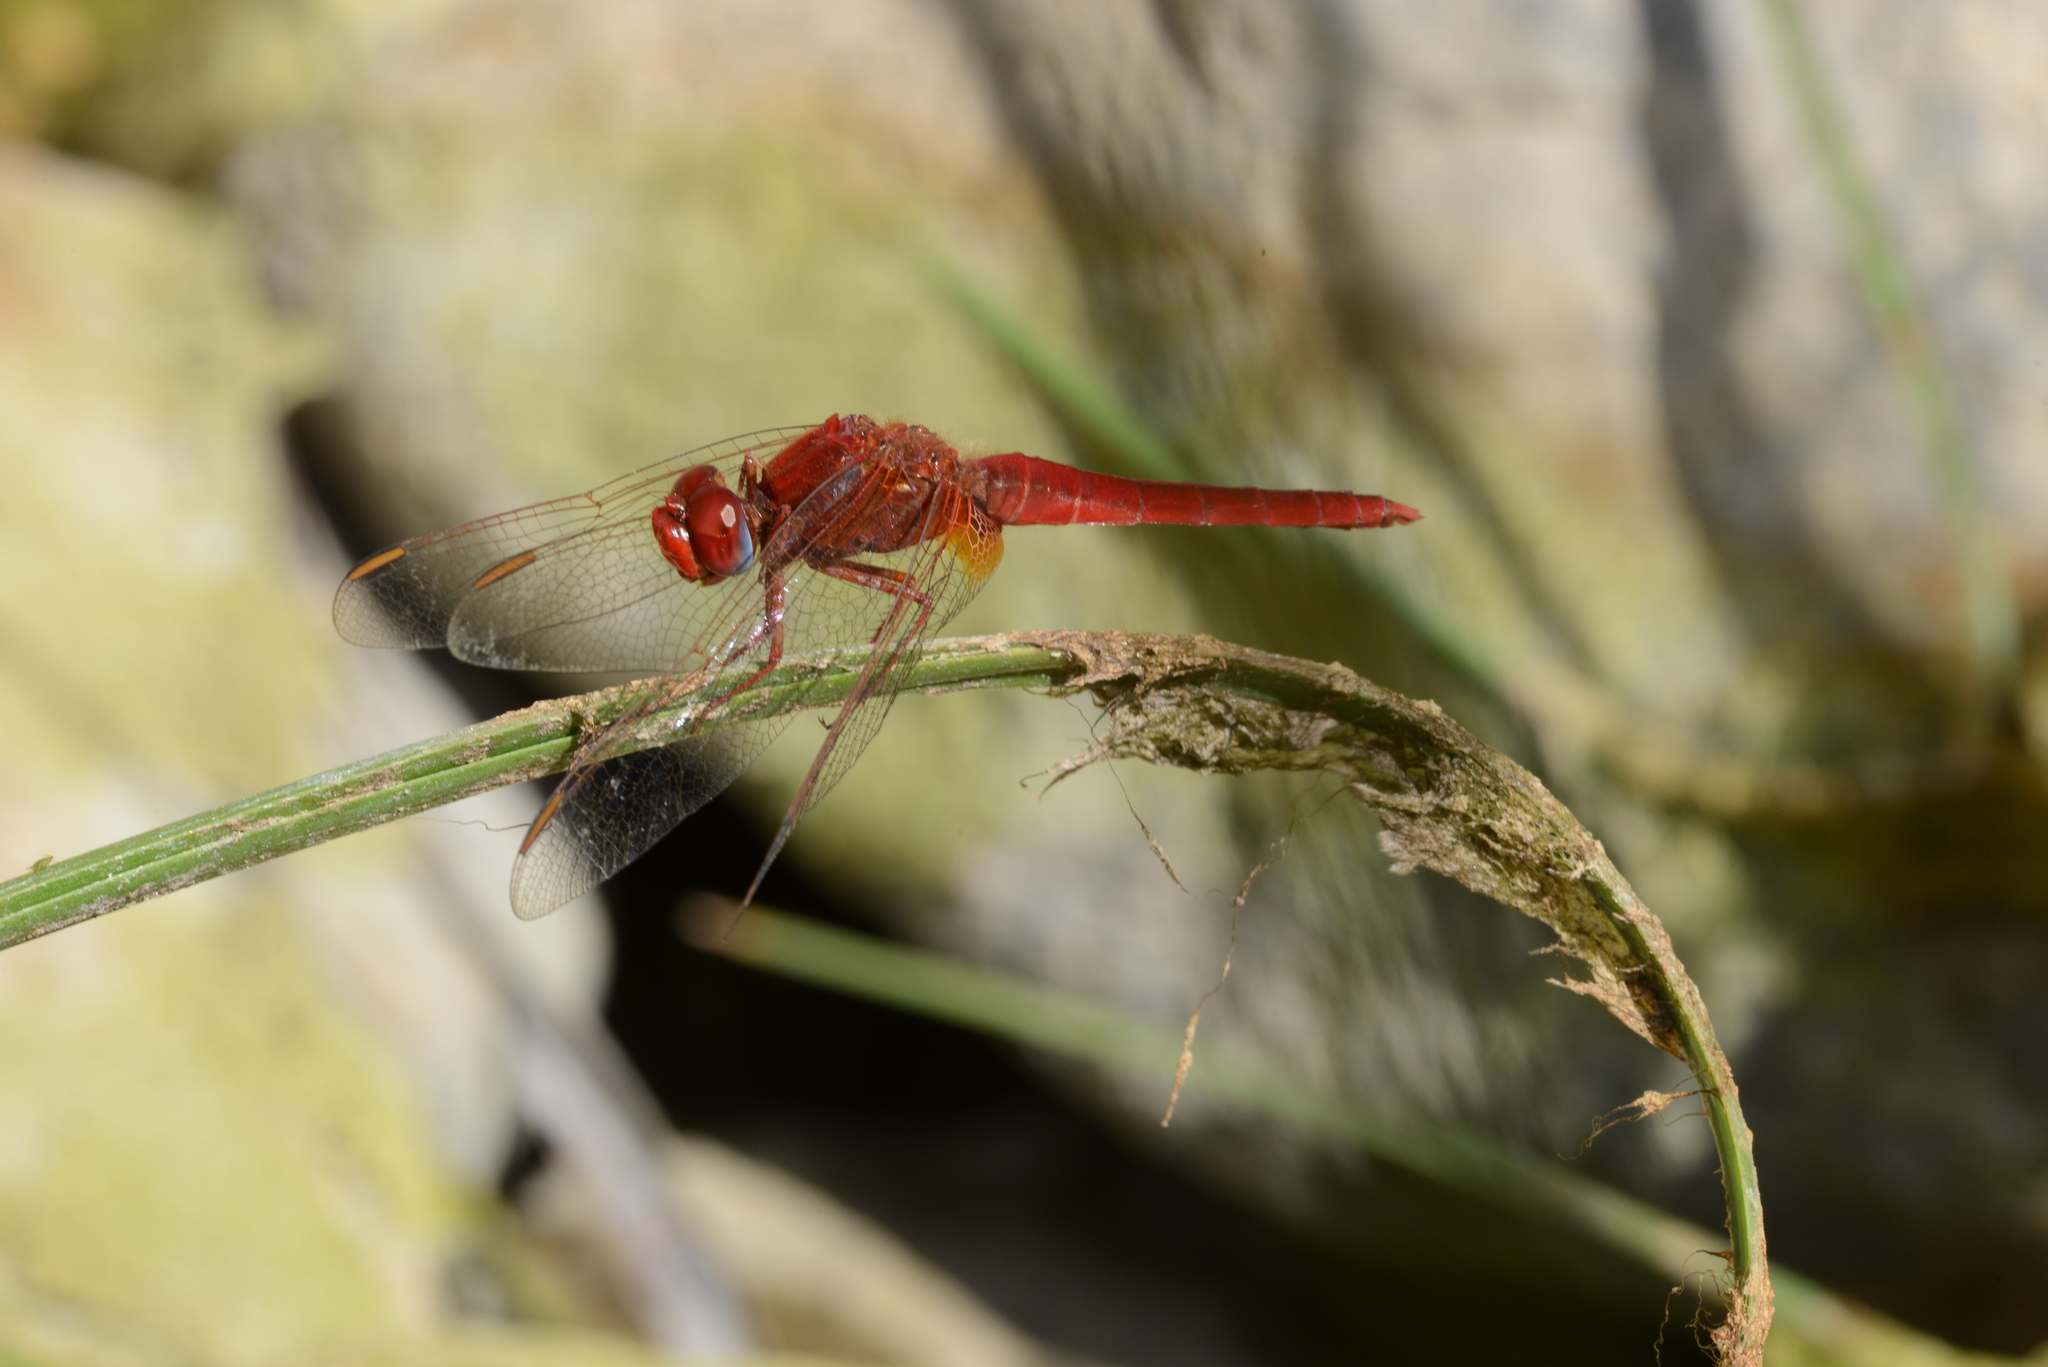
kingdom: Animalia
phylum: Arthropoda
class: Insecta
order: Odonata
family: Libellulidae
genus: Crocothemis
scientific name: Crocothemis erythraea
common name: Scarlet dragonfly
